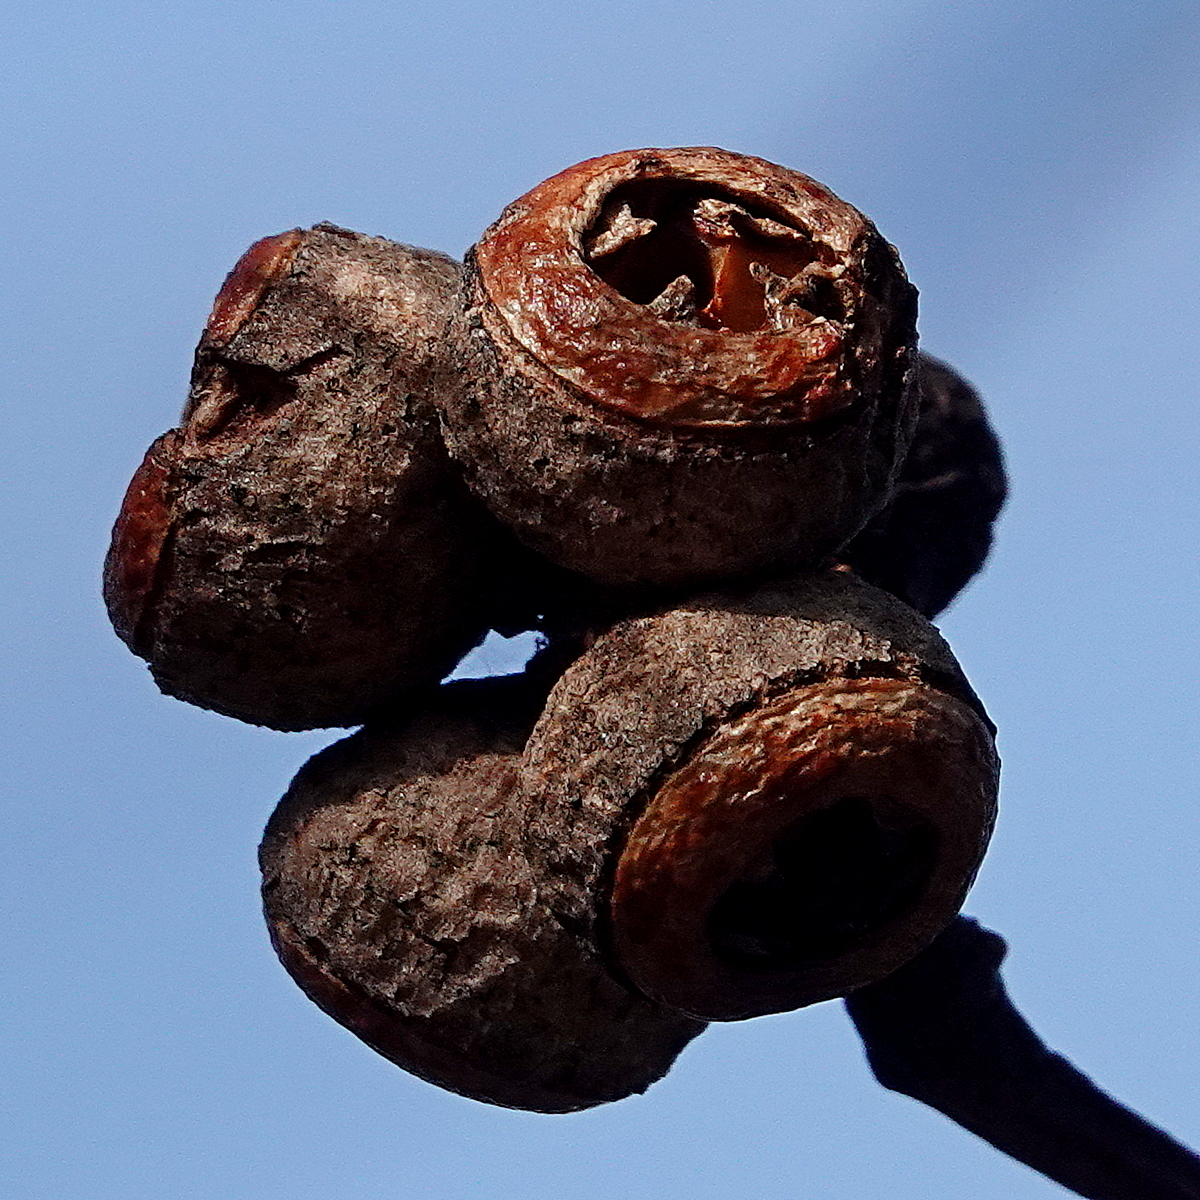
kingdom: Plantae
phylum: Tracheophyta
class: Magnoliopsida
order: Myrtales
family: Myrtaceae
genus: Eucalyptus
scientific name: Eucalyptus baxteri
